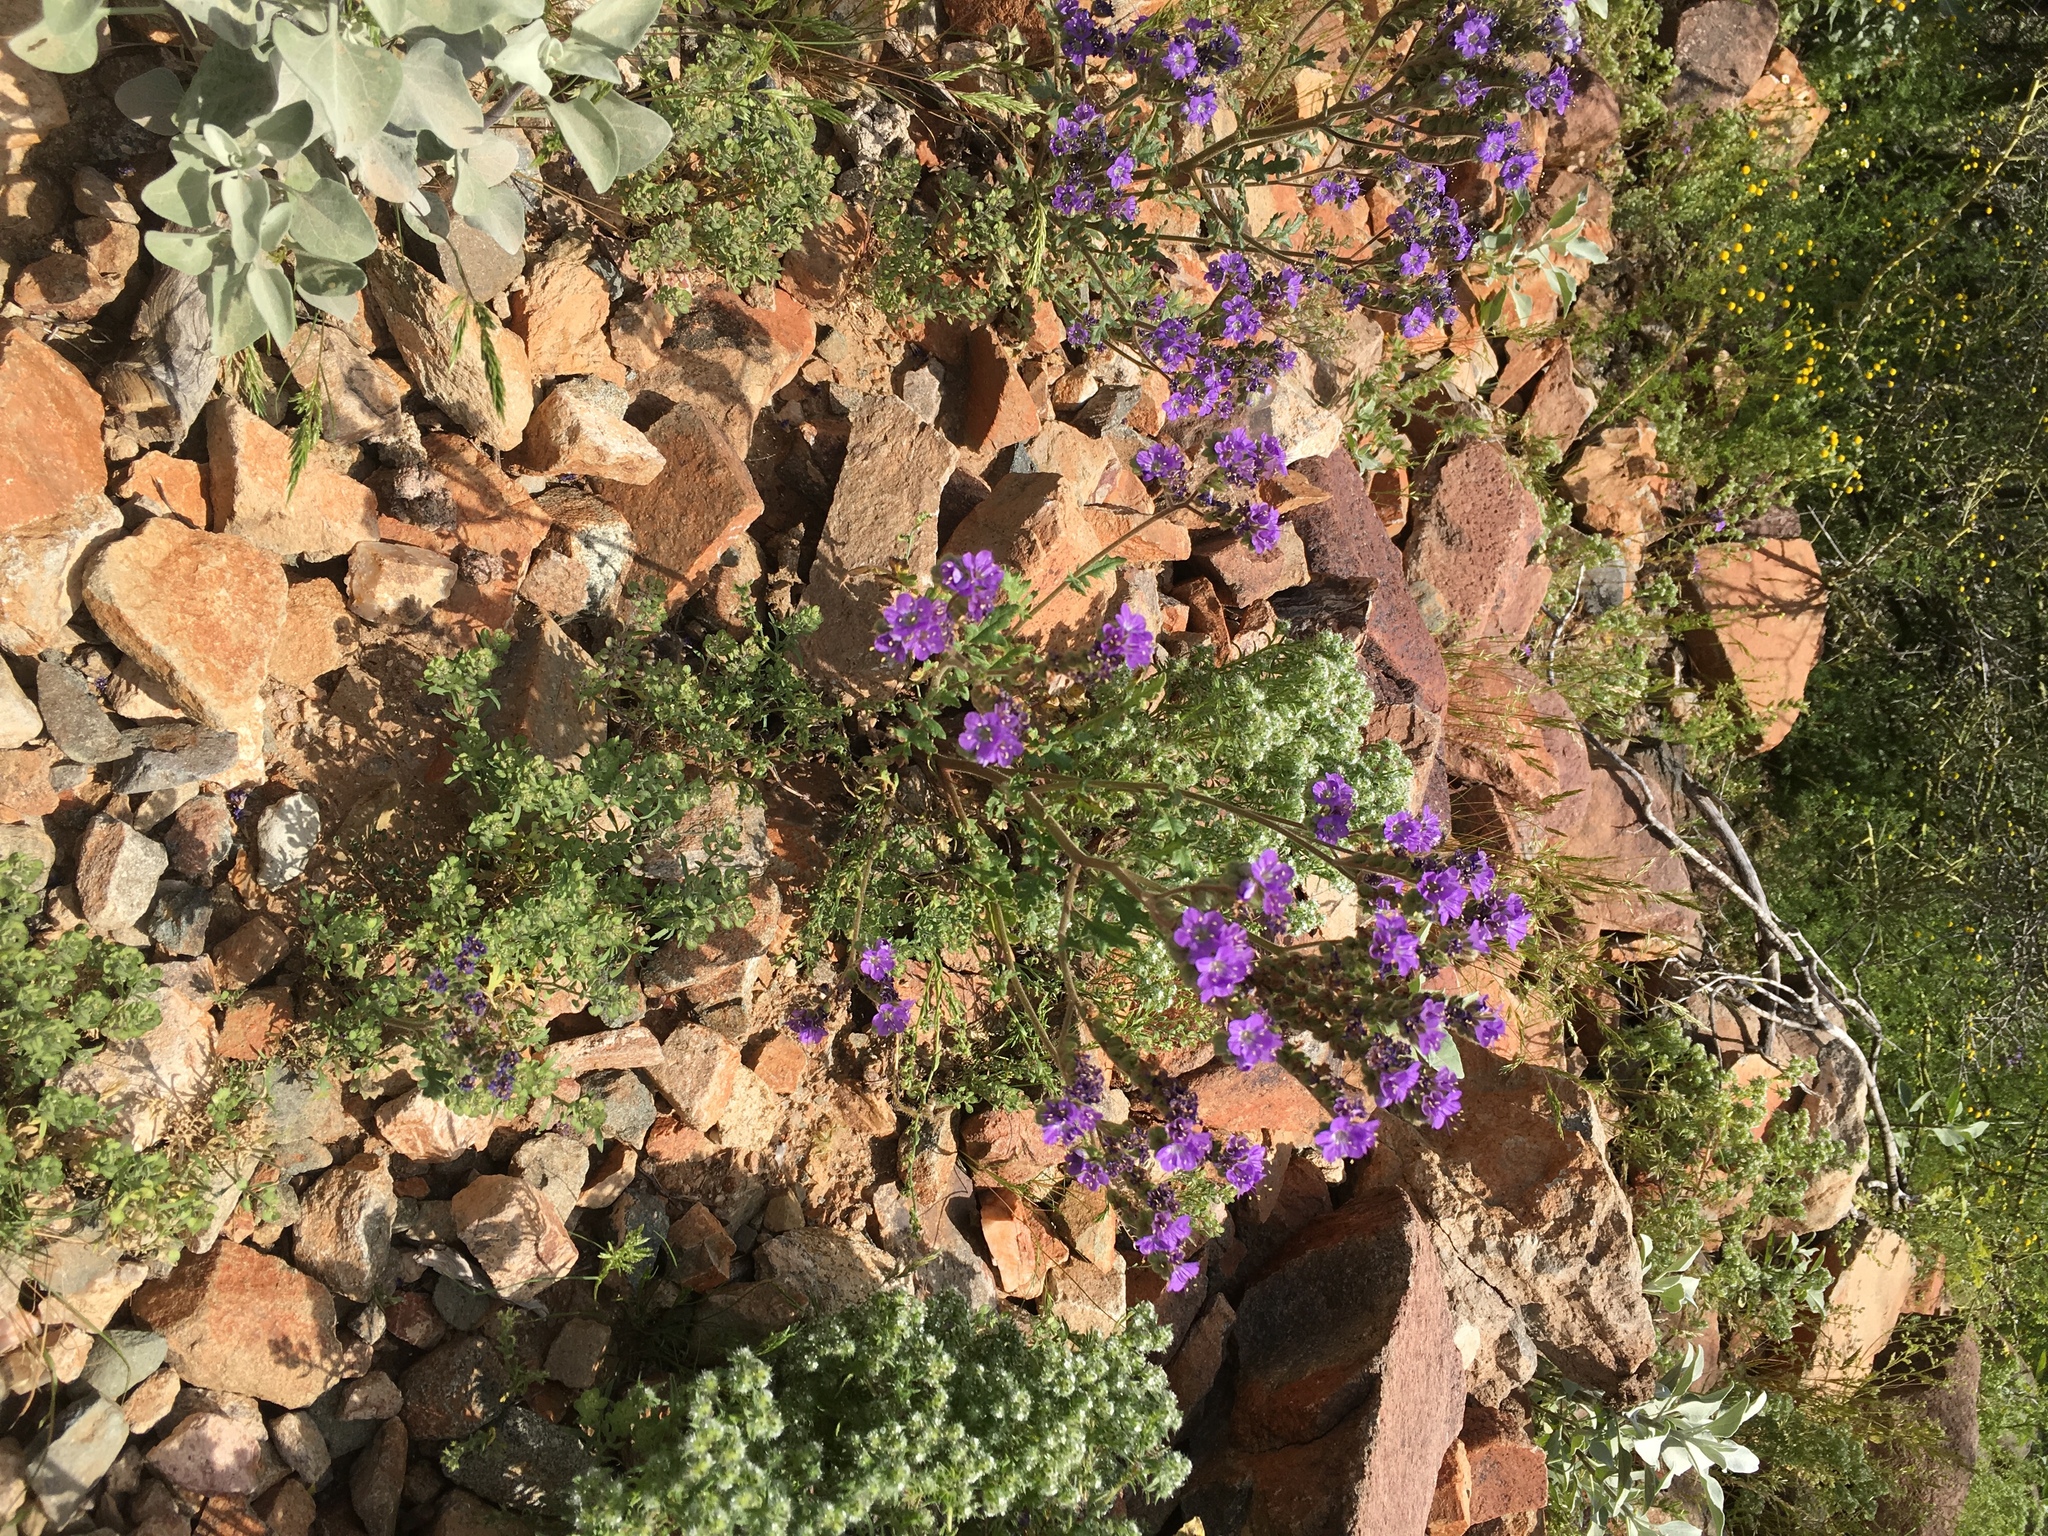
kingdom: Plantae
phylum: Tracheophyta
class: Magnoliopsida
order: Boraginales
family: Hydrophyllaceae
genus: Phacelia
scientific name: Phacelia crenulata
